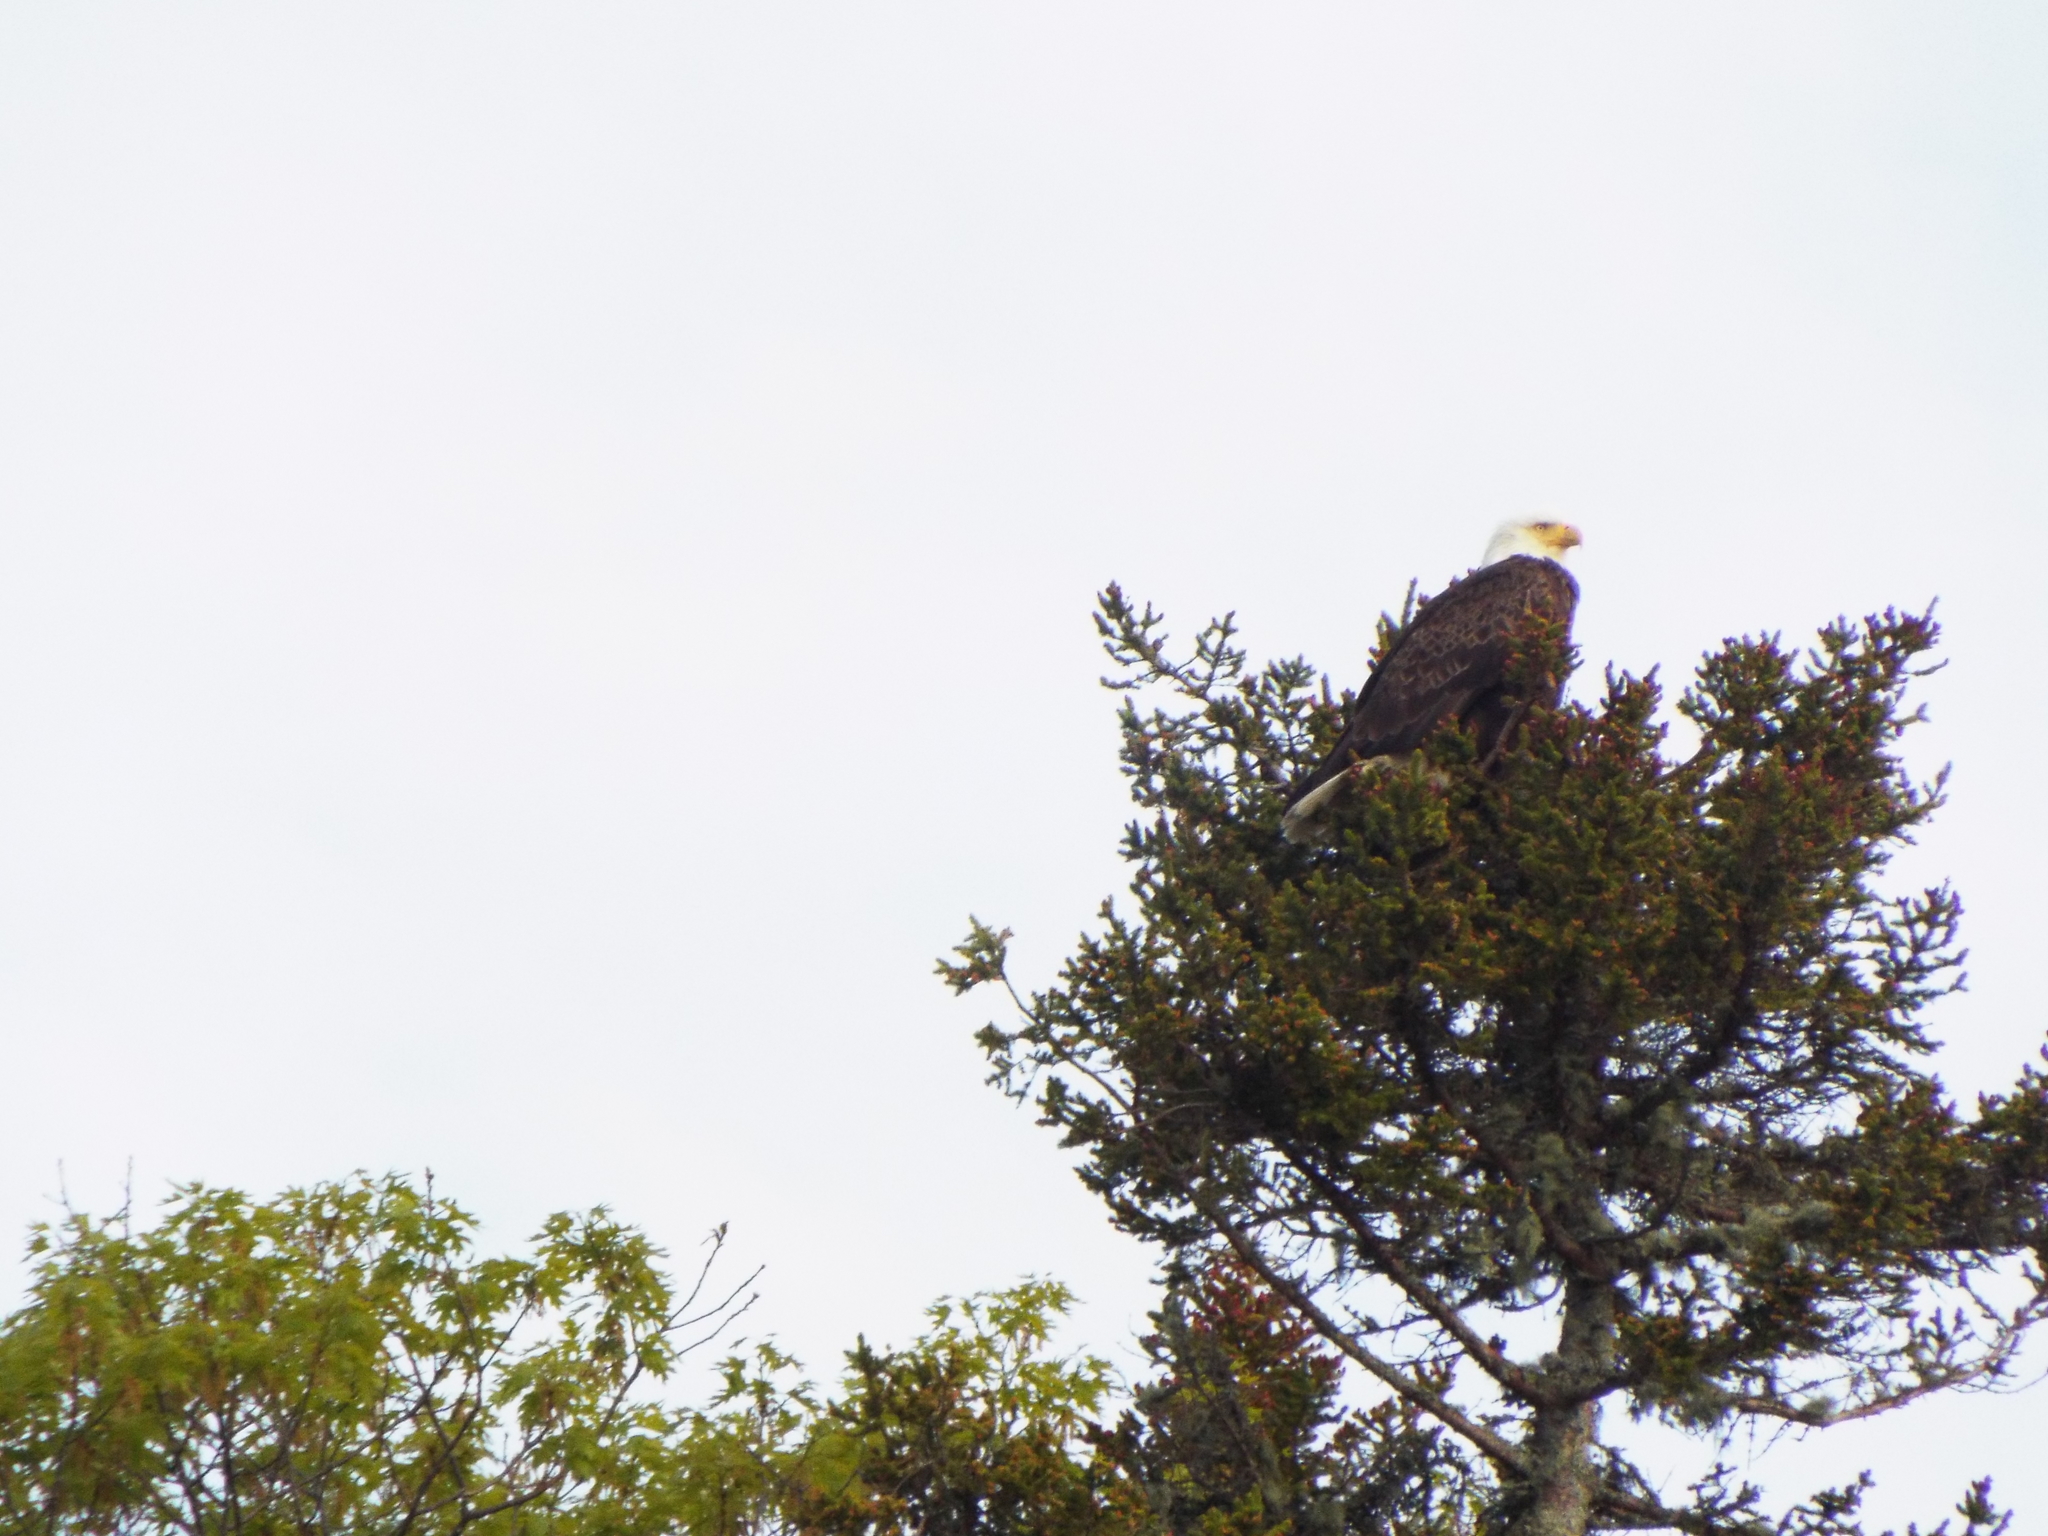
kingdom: Animalia
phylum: Chordata
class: Aves
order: Accipitriformes
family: Accipitridae
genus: Haliaeetus
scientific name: Haliaeetus leucocephalus
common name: Bald eagle
